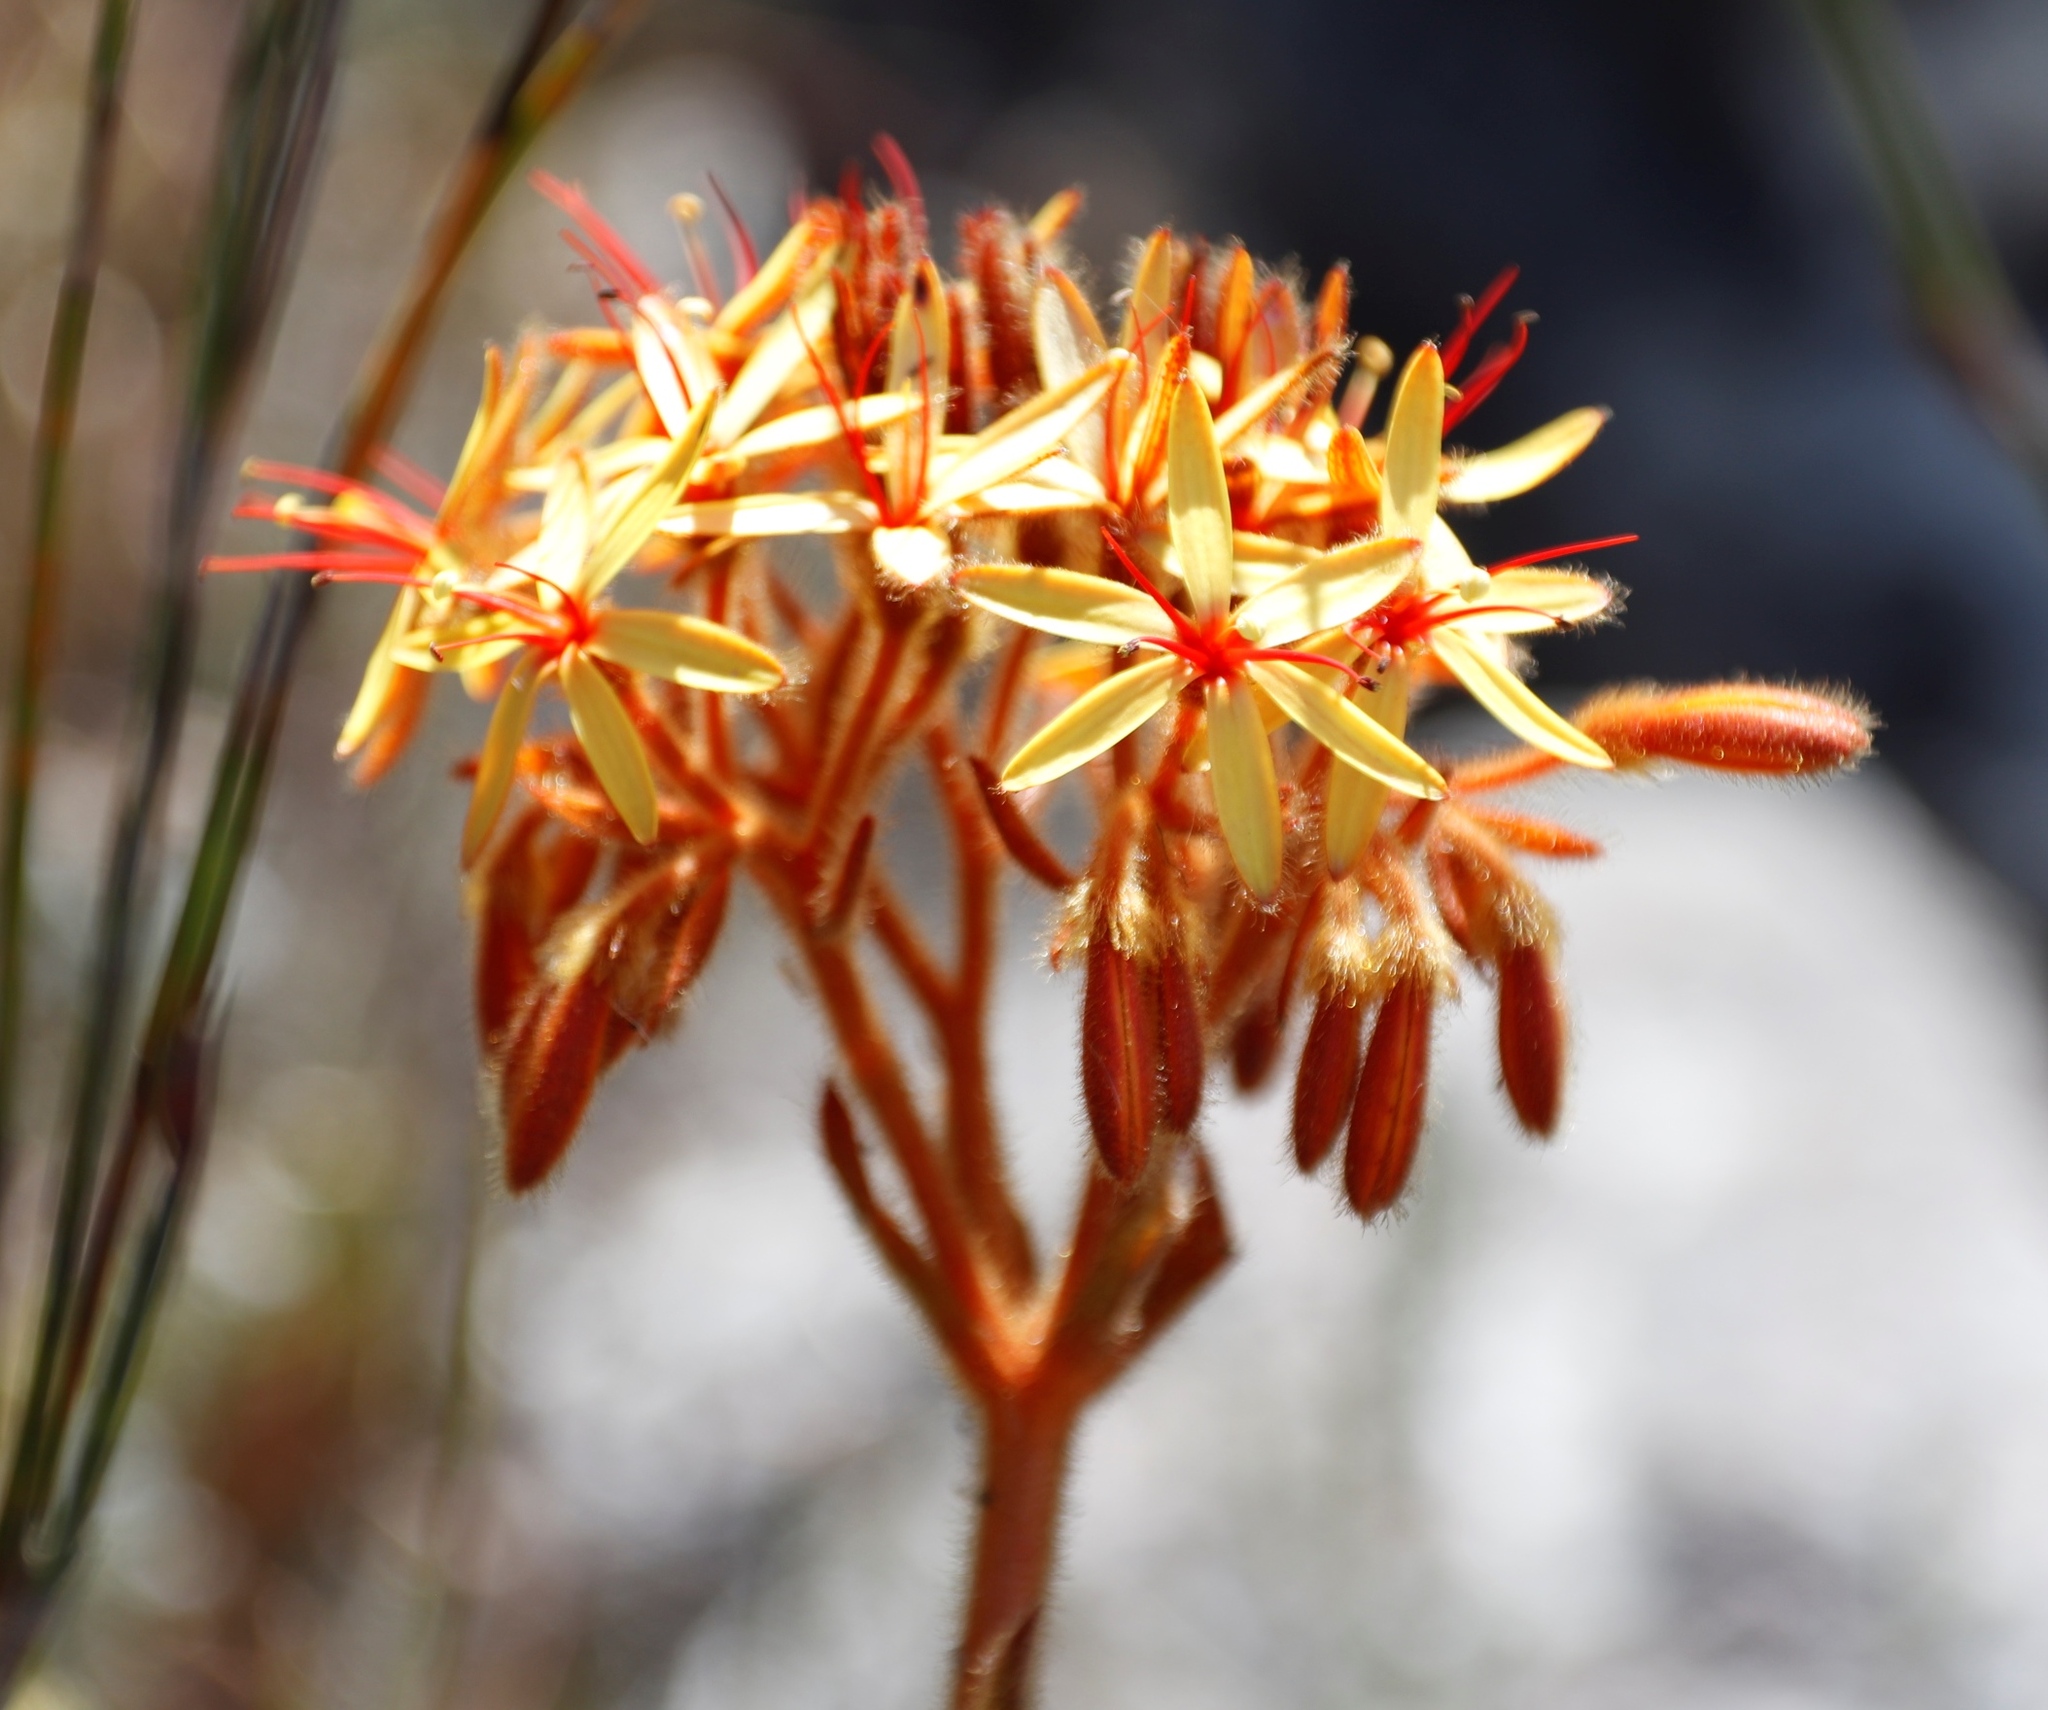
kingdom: Plantae
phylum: Tracheophyta
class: Liliopsida
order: Commelinales
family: Haemodoraceae
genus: Dilatris
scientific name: Dilatris viscosa
